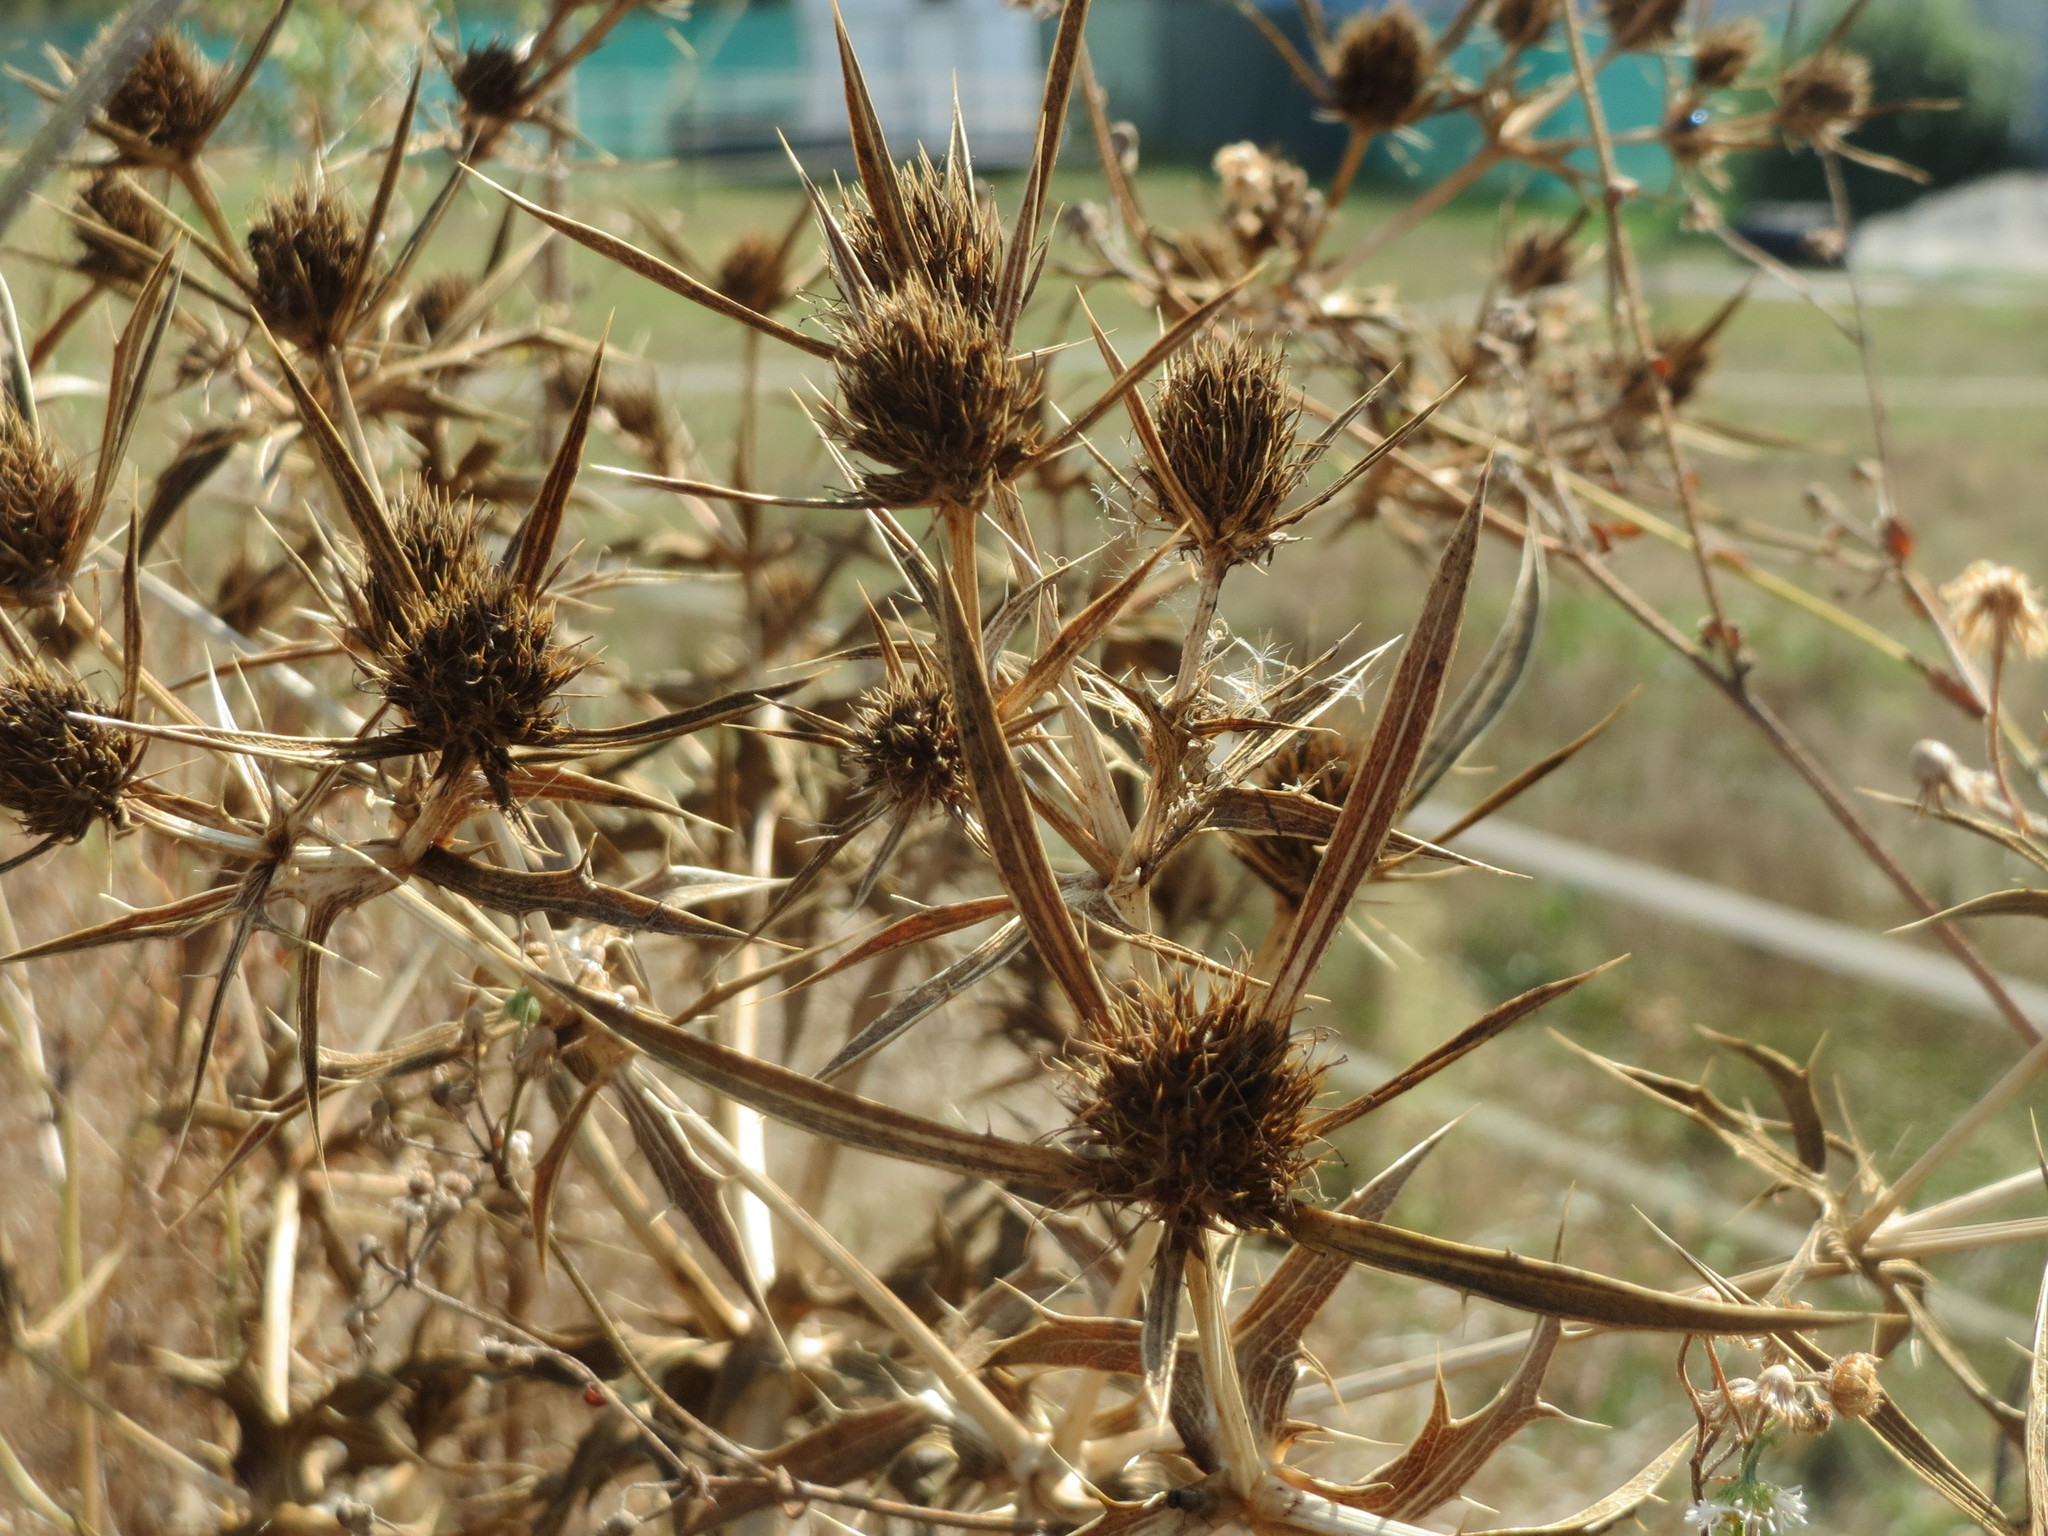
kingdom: Plantae
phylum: Tracheophyta
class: Magnoliopsida
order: Apiales
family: Apiaceae
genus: Eryngium
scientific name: Eryngium campestre
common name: Field eryngo
